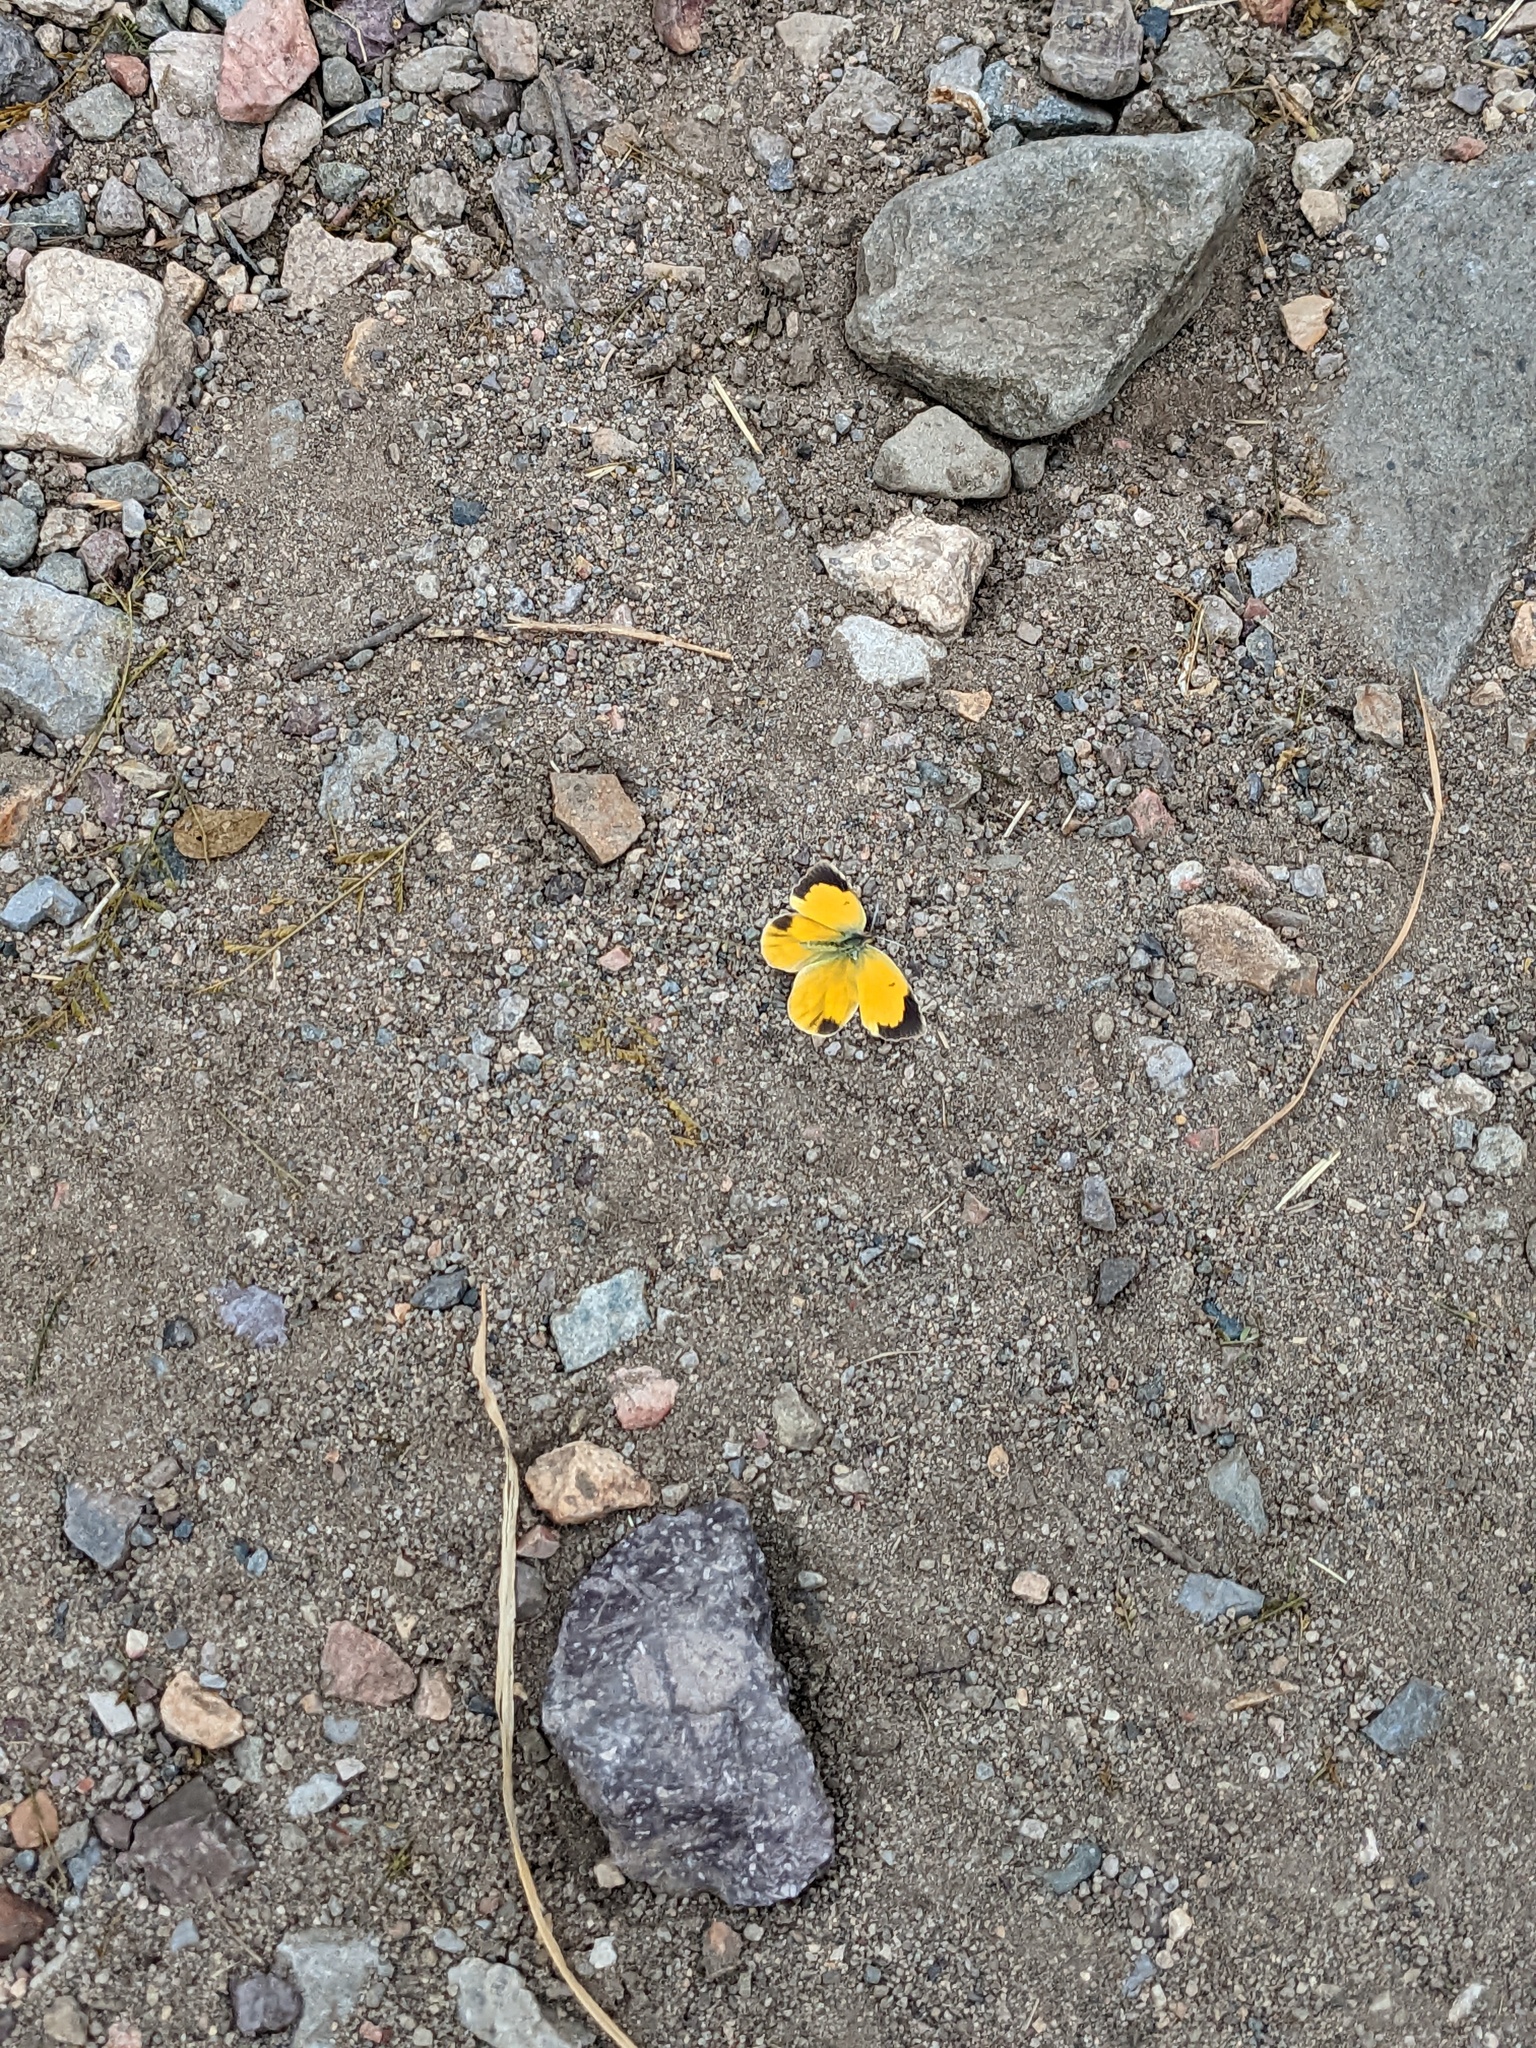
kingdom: Animalia
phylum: Arthropoda
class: Insecta
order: Lepidoptera
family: Pieridae
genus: Abaeis
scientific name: Abaeis nicippe
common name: Sleepy orange
